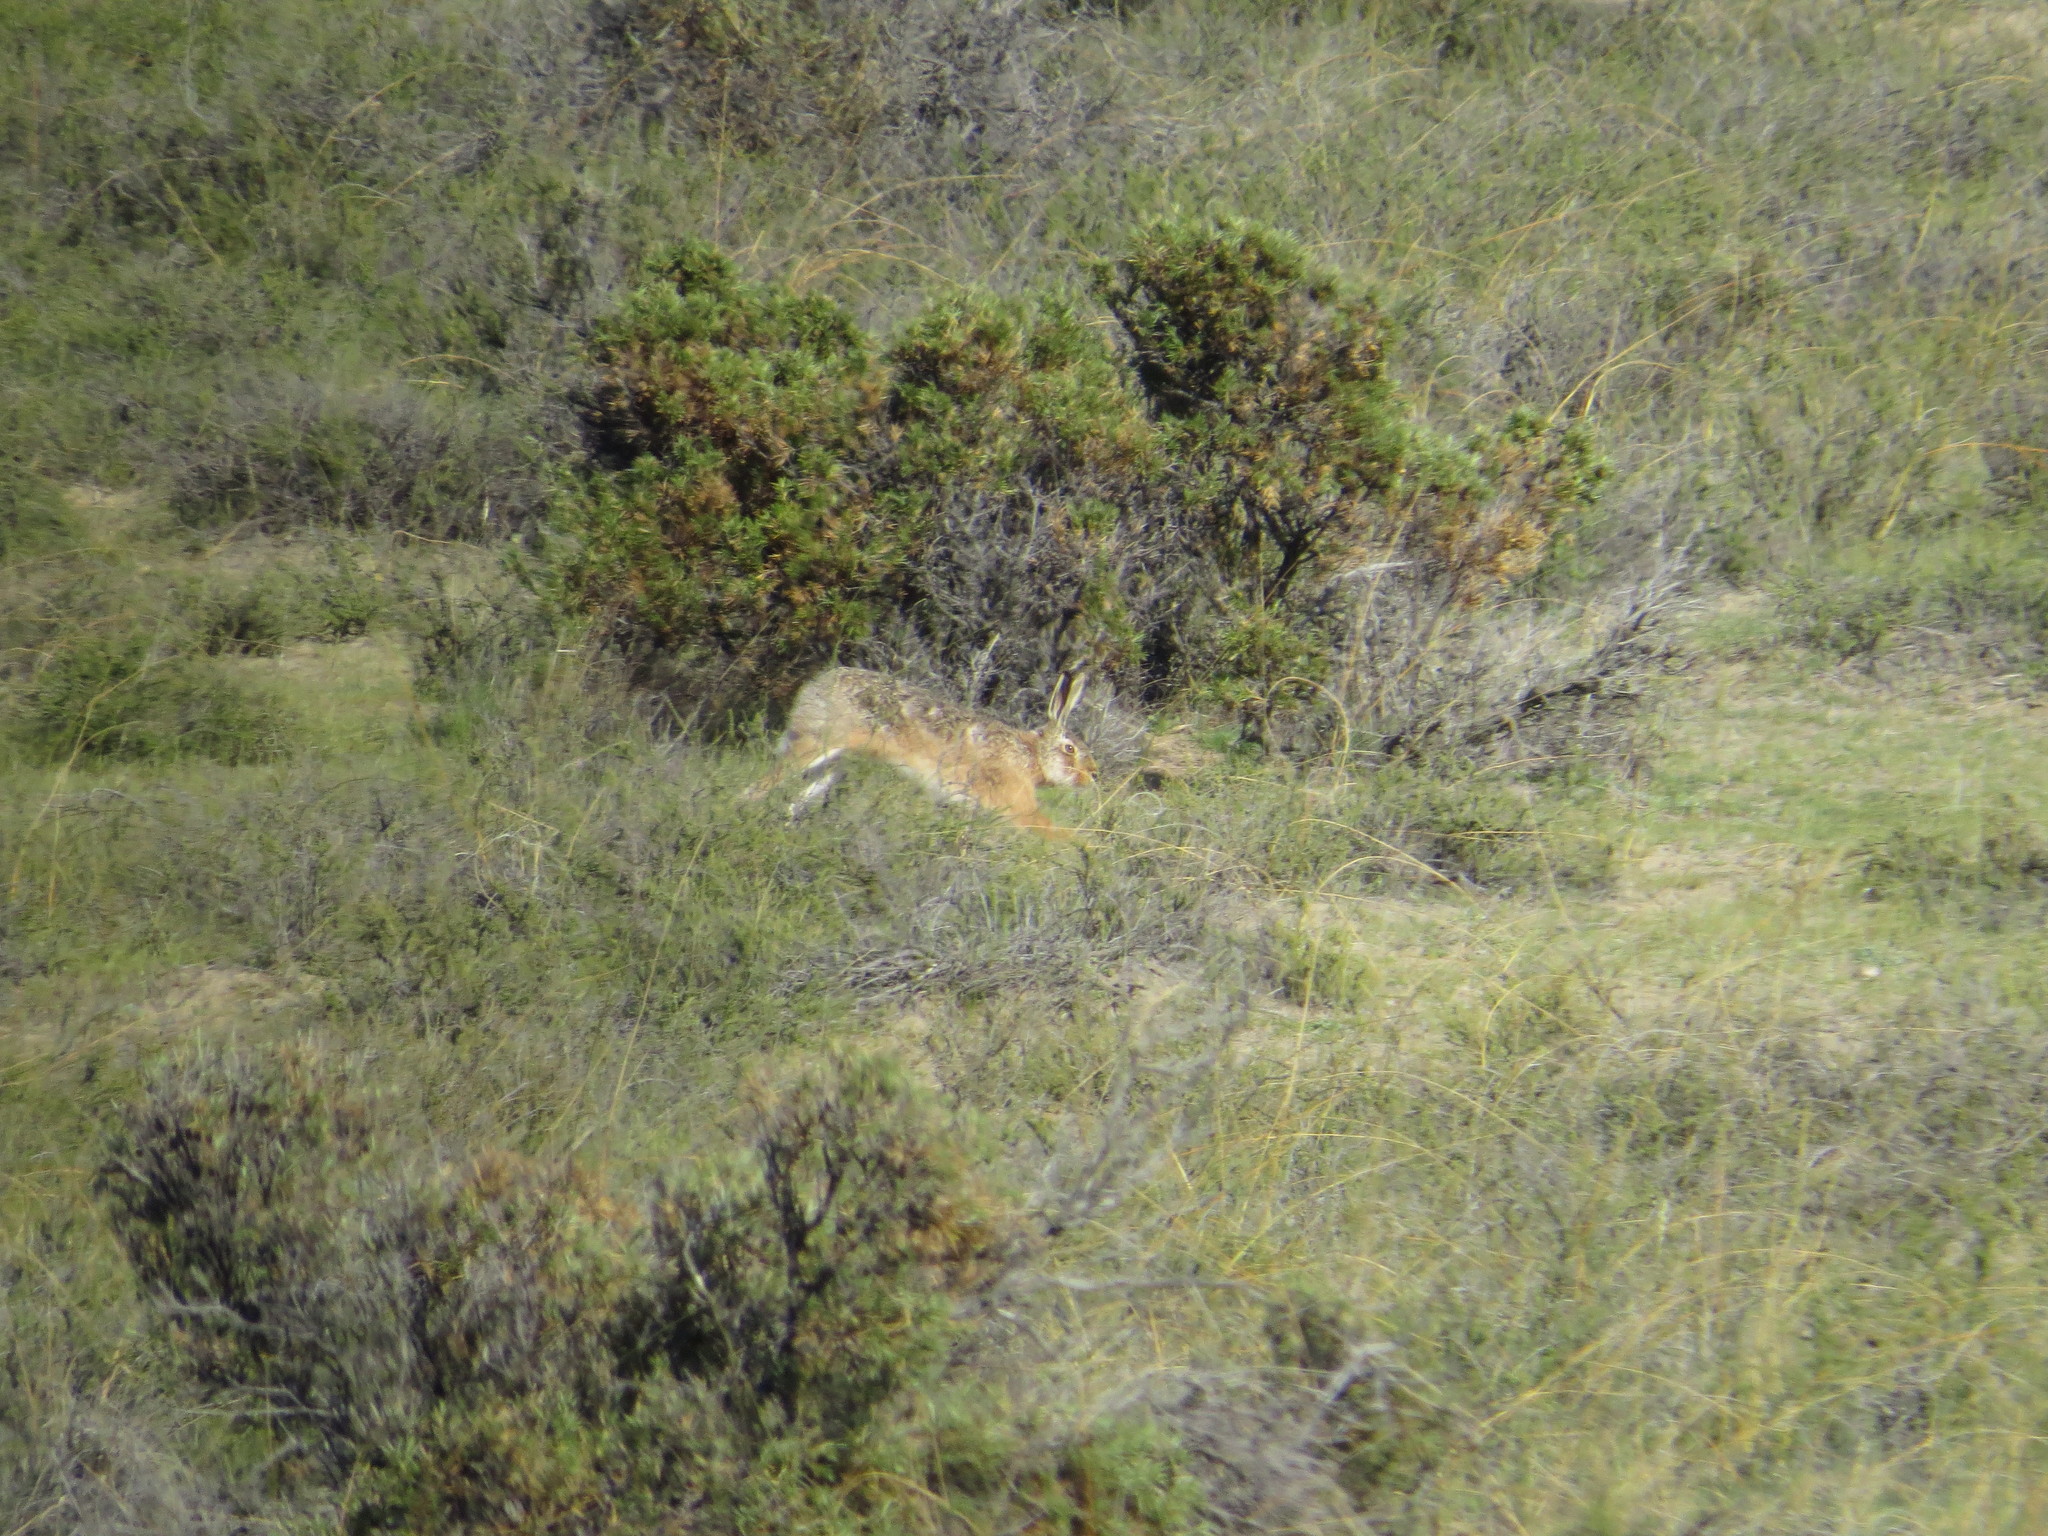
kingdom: Animalia
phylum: Chordata
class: Mammalia
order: Lagomorpha
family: Leporidae
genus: Lepus
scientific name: Lepus europaeus
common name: European hare
